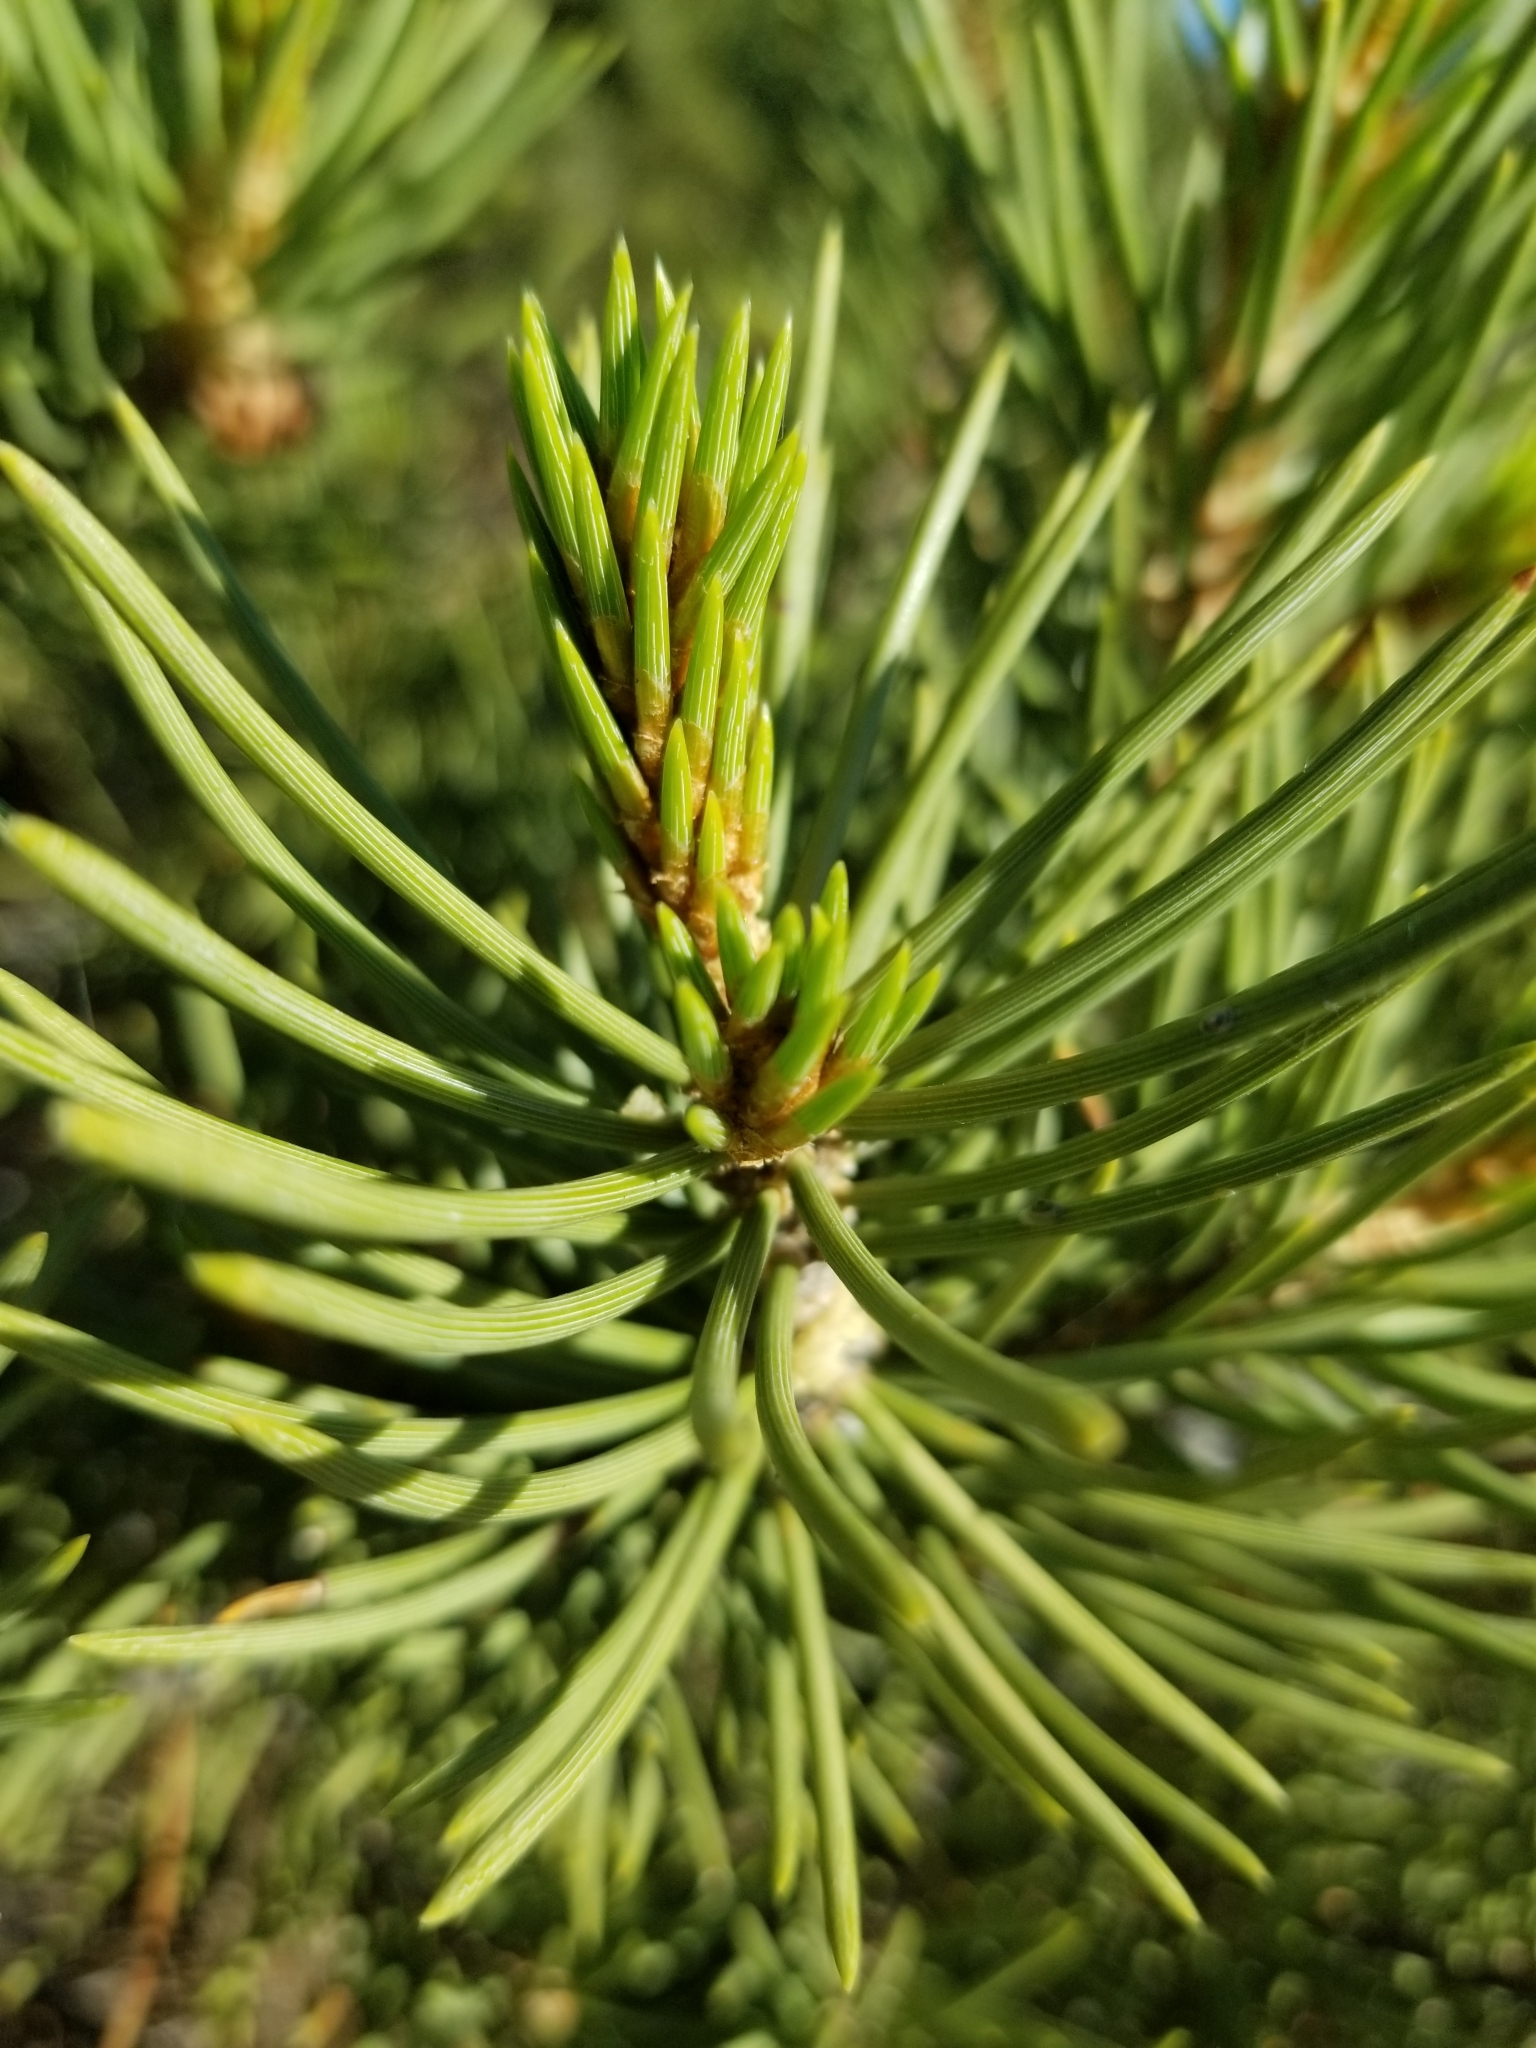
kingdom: Plantae
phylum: Tracheophyta
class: Pinopsida
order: Pinales
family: Pinaceae
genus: Pinus
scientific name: Pinus monophylla
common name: One-leaved nut pine
